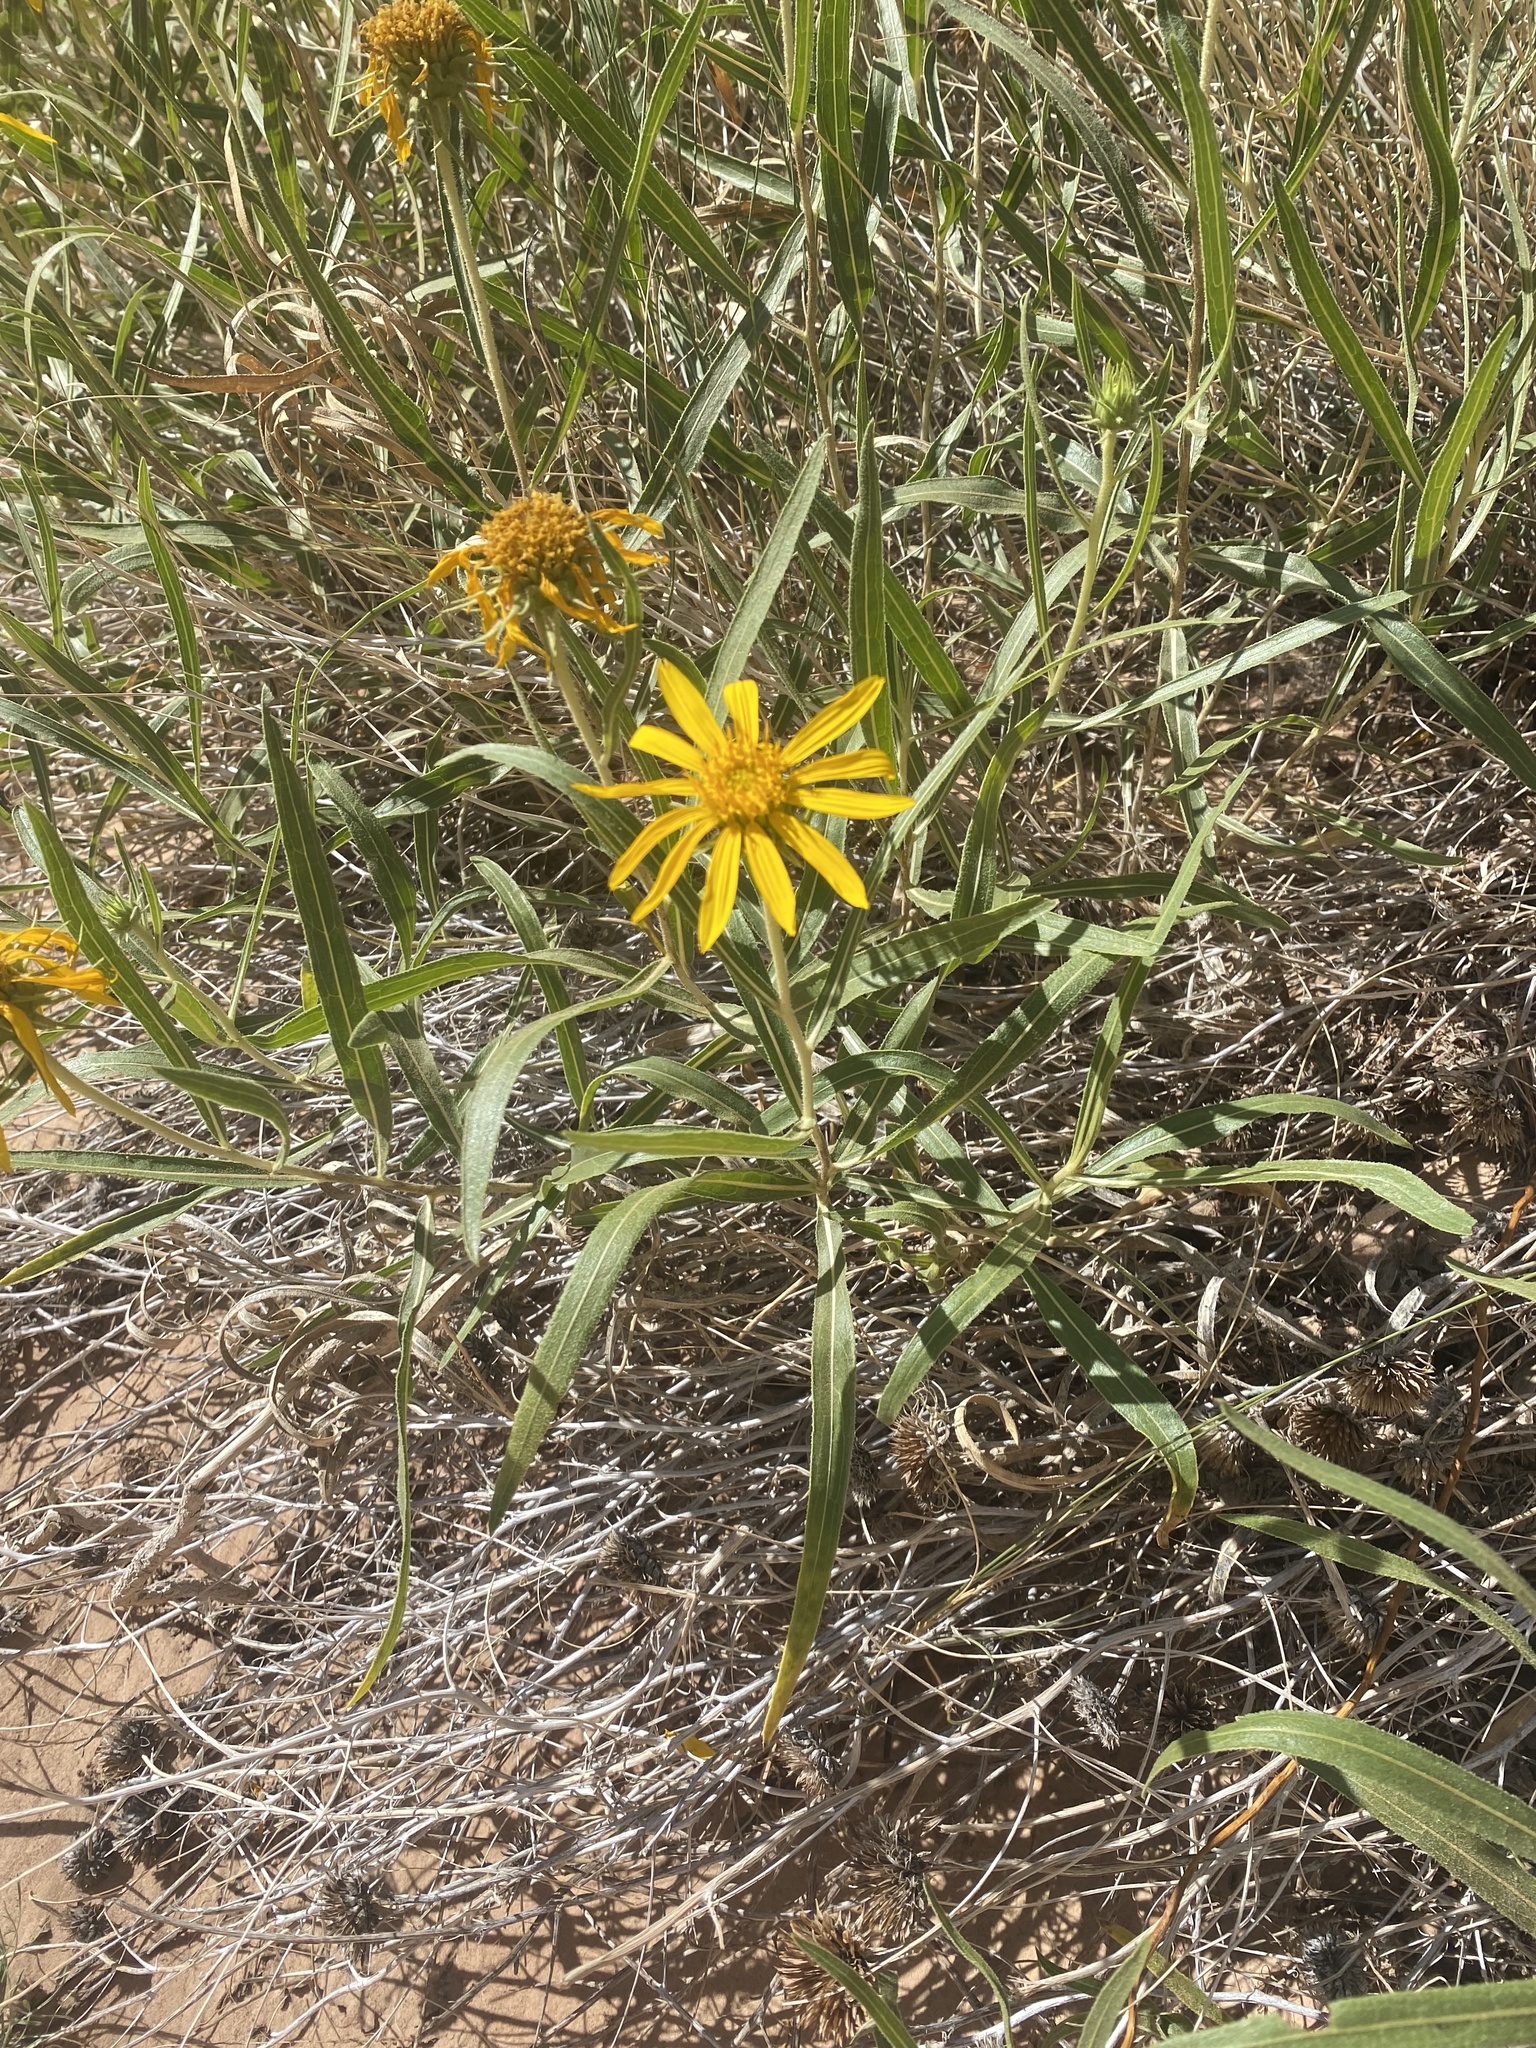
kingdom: Plantae
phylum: Tracheophyta
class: Magnoliopsida
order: Asterales
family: Asteraceae
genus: Scabrethia
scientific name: Scabrethia scabra
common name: Rough mules's-ears
